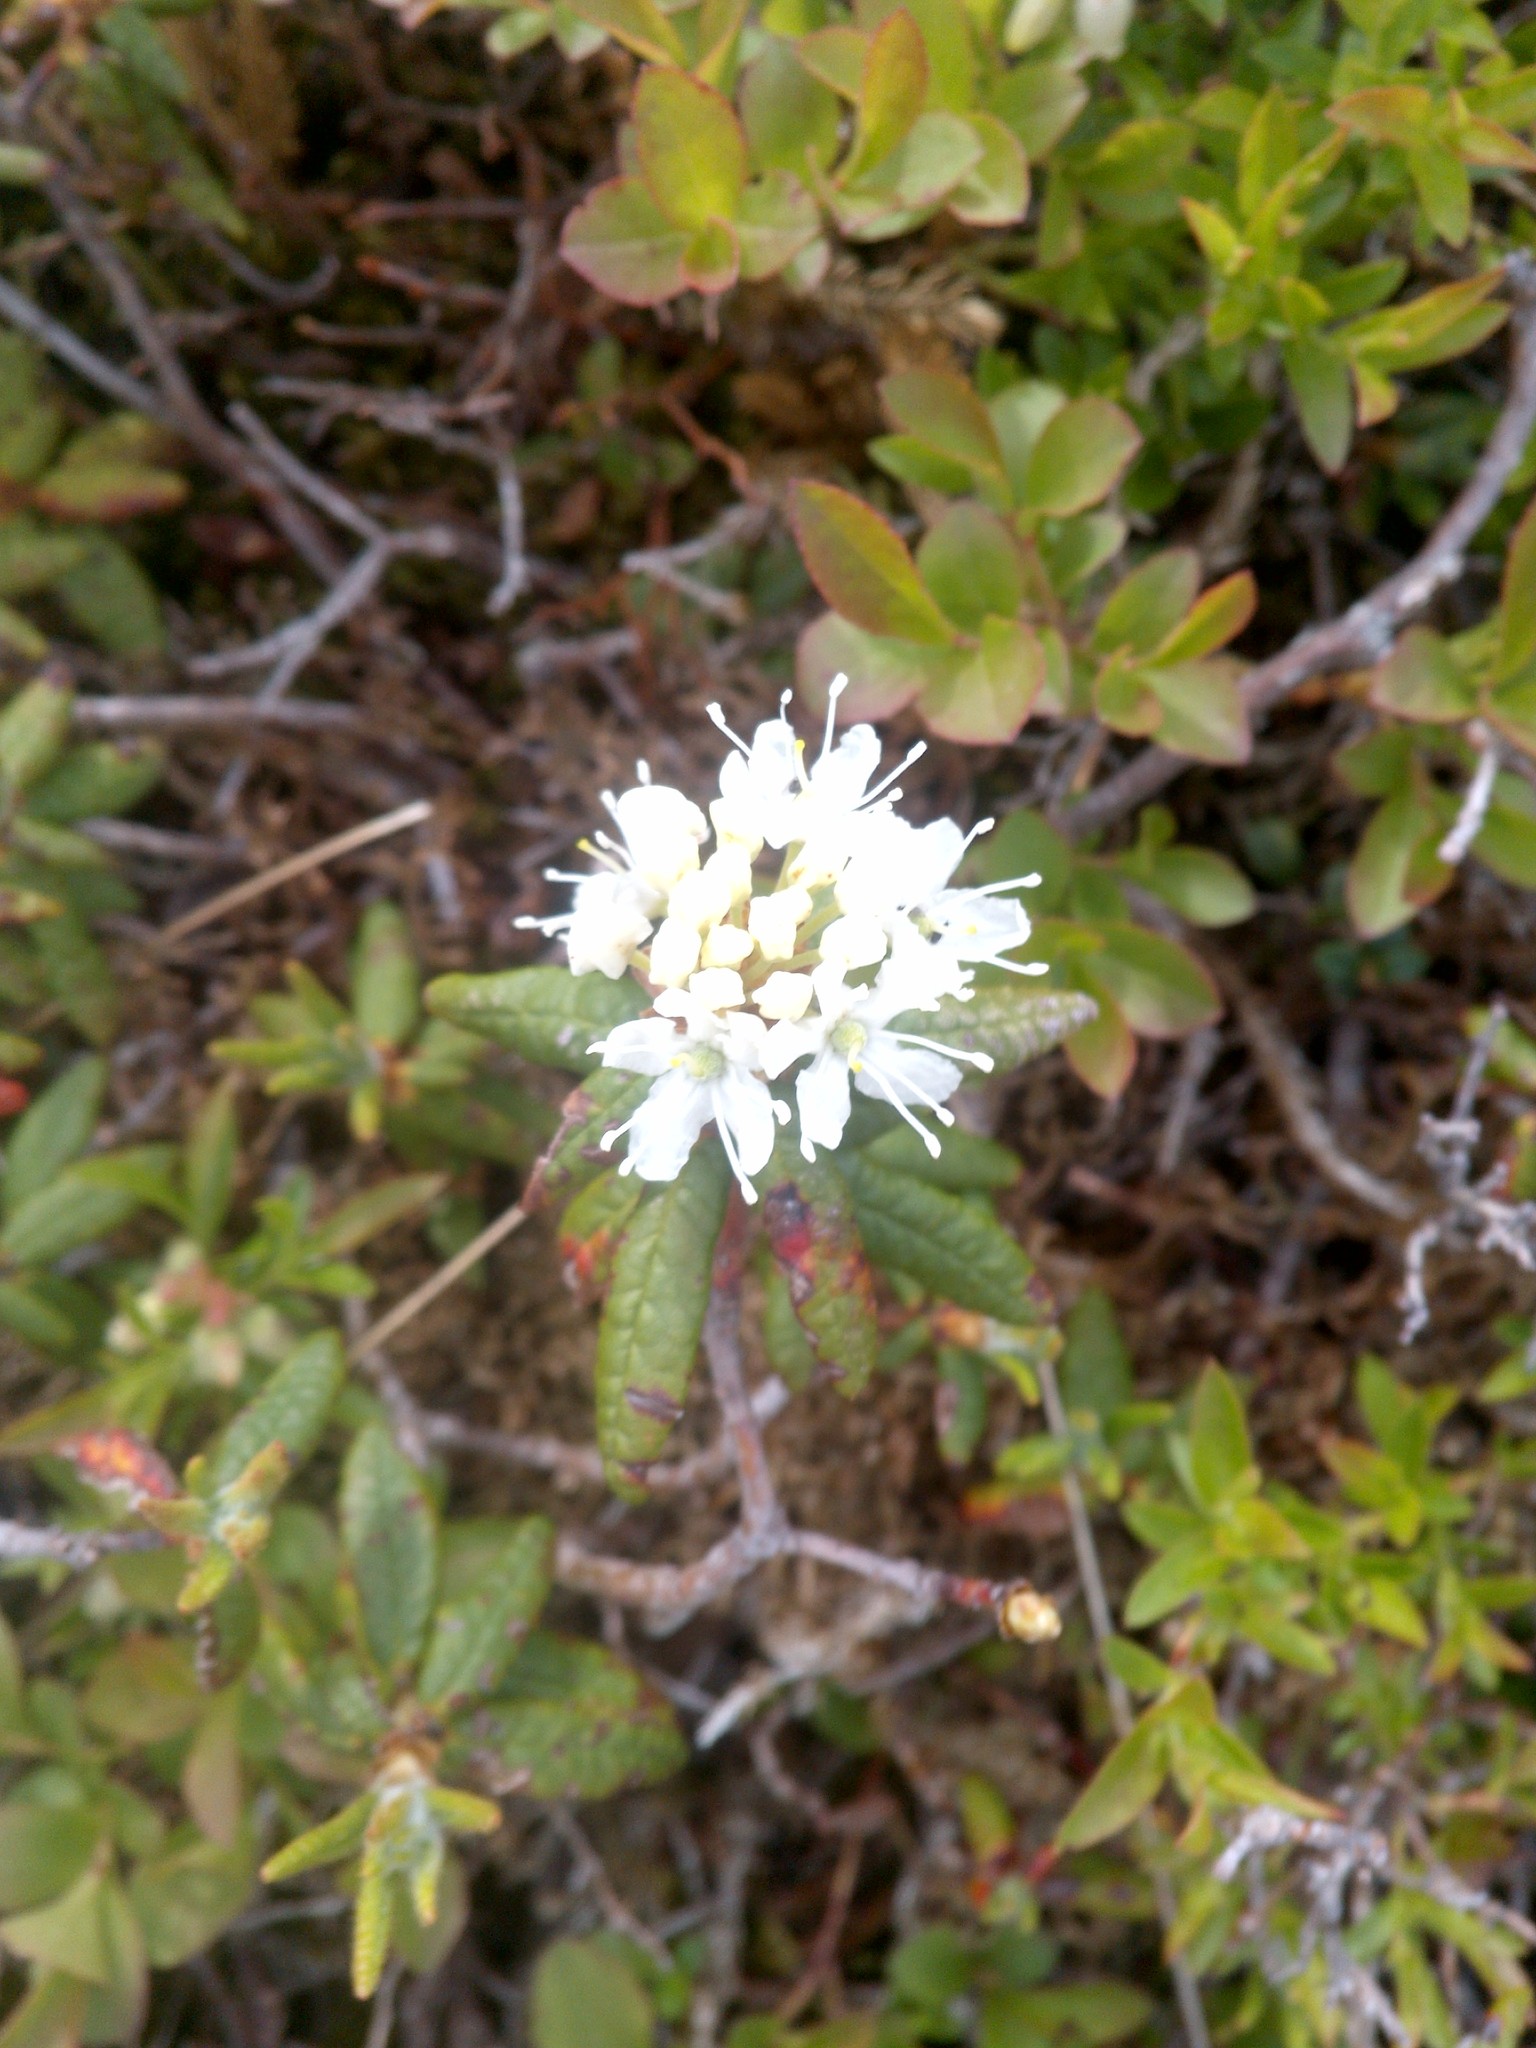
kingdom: Plantae
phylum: Tracheophyta
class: Magnoliopsida
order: Ericales
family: Ericaceae
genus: Rhododendron
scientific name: Rhododendron groenlandicum
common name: Bog labrador tea
